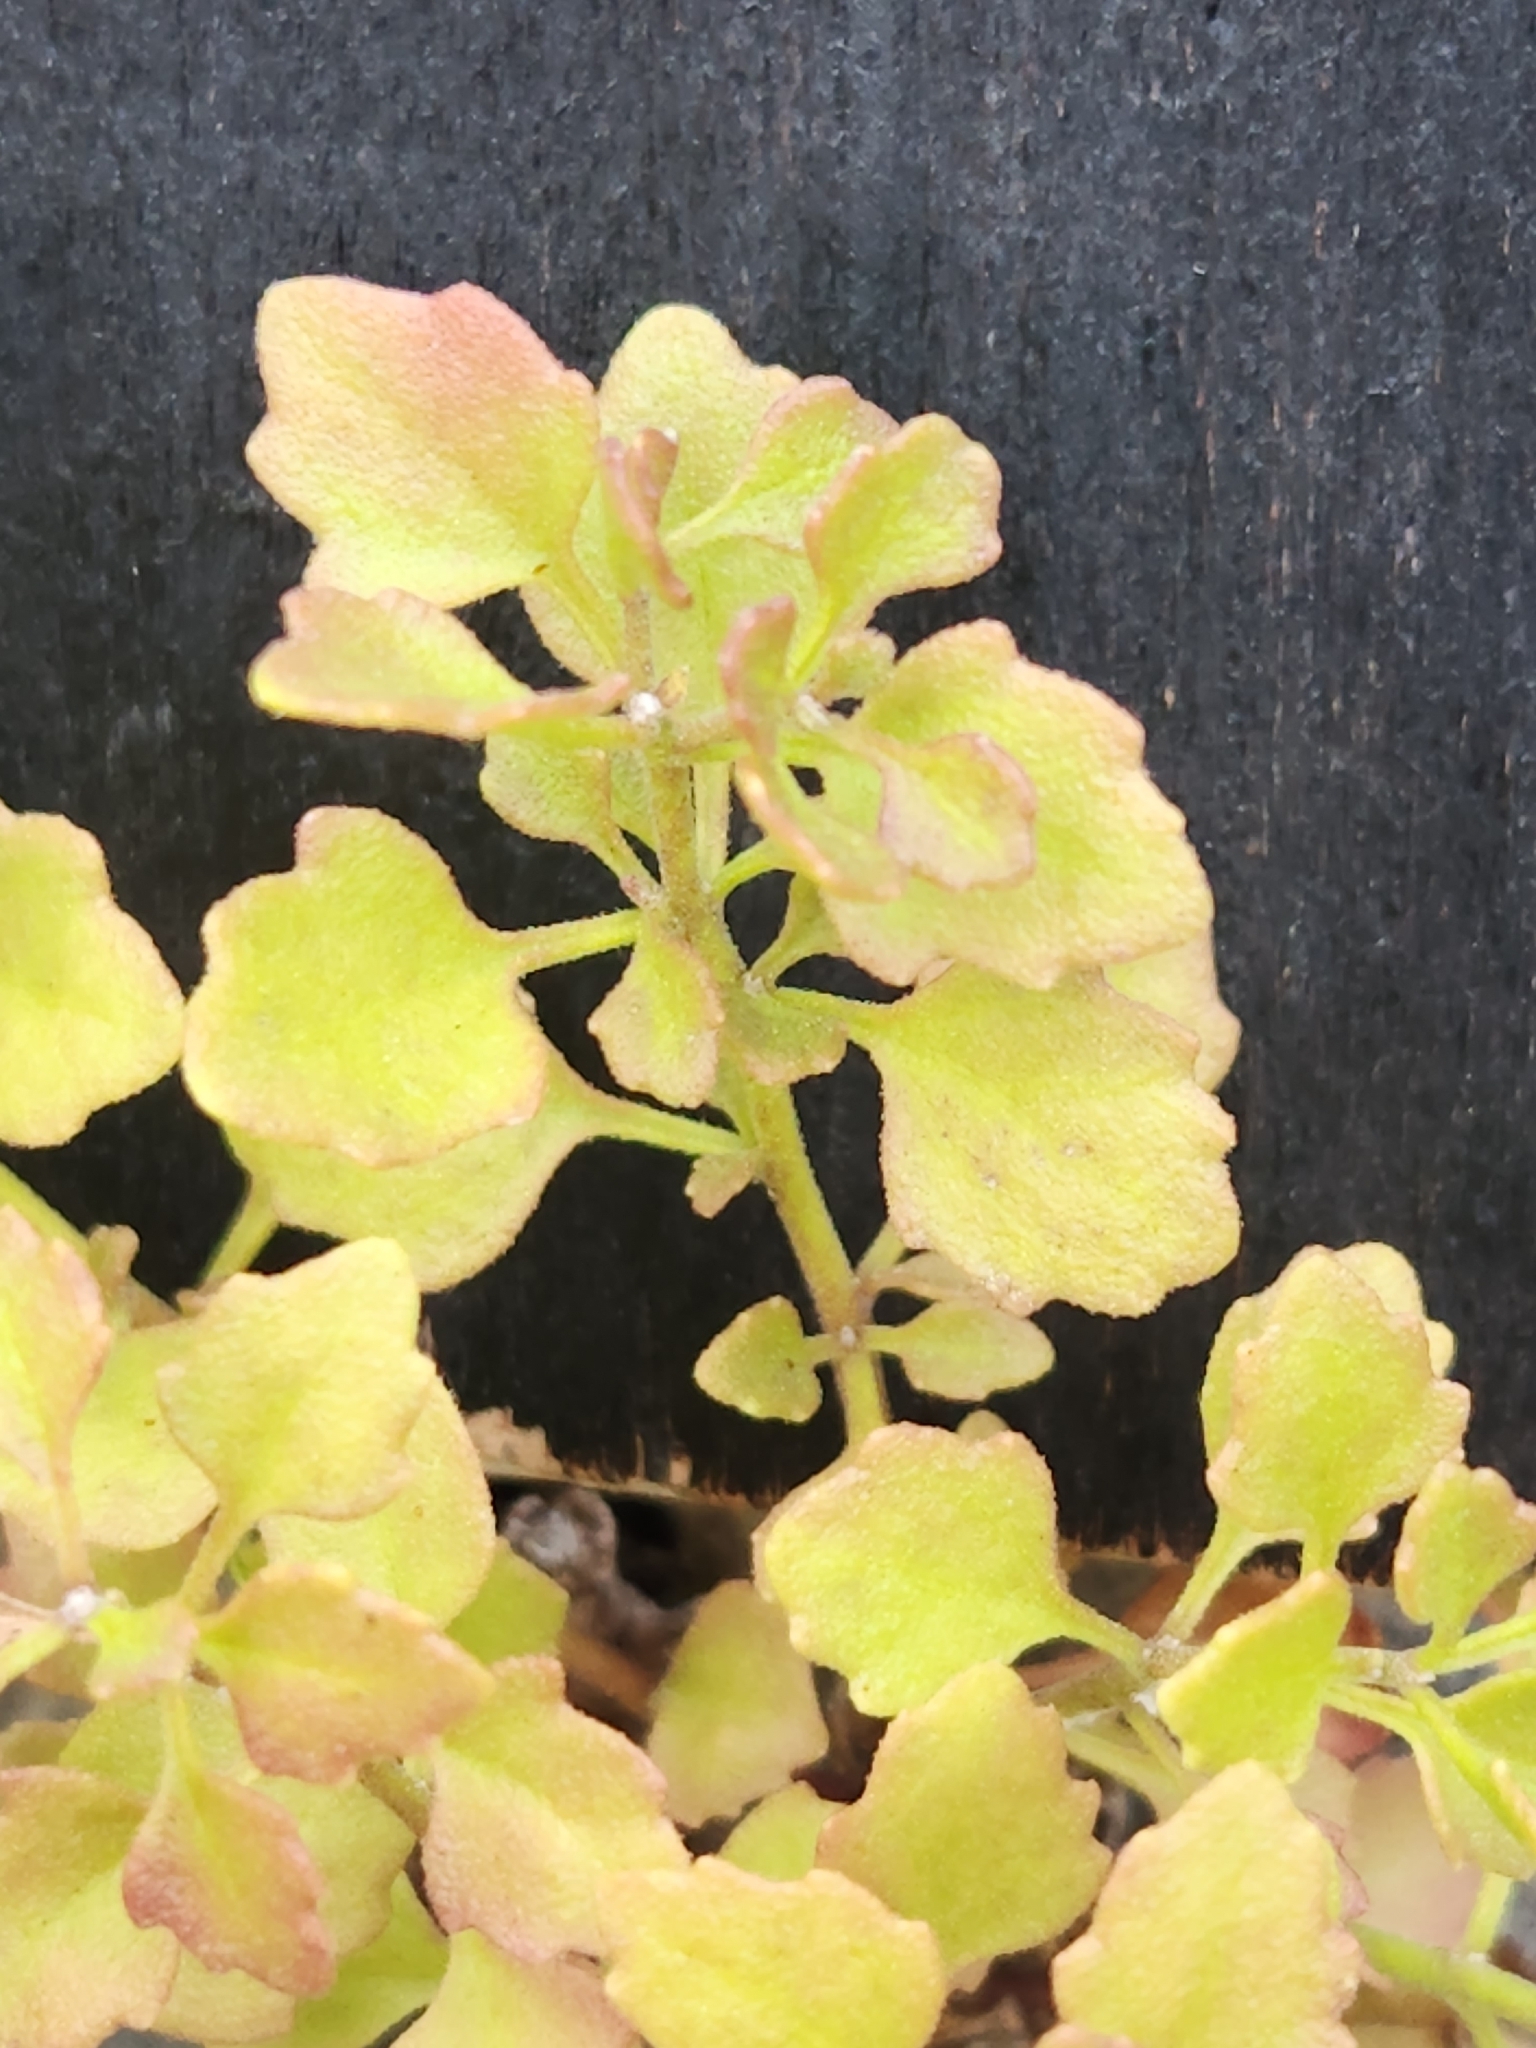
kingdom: Plantae
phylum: Tracheophyta
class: Magnoliopsida
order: Asterales
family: Asteraceae
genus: Laphamia
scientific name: Laphamia lindheimeri
